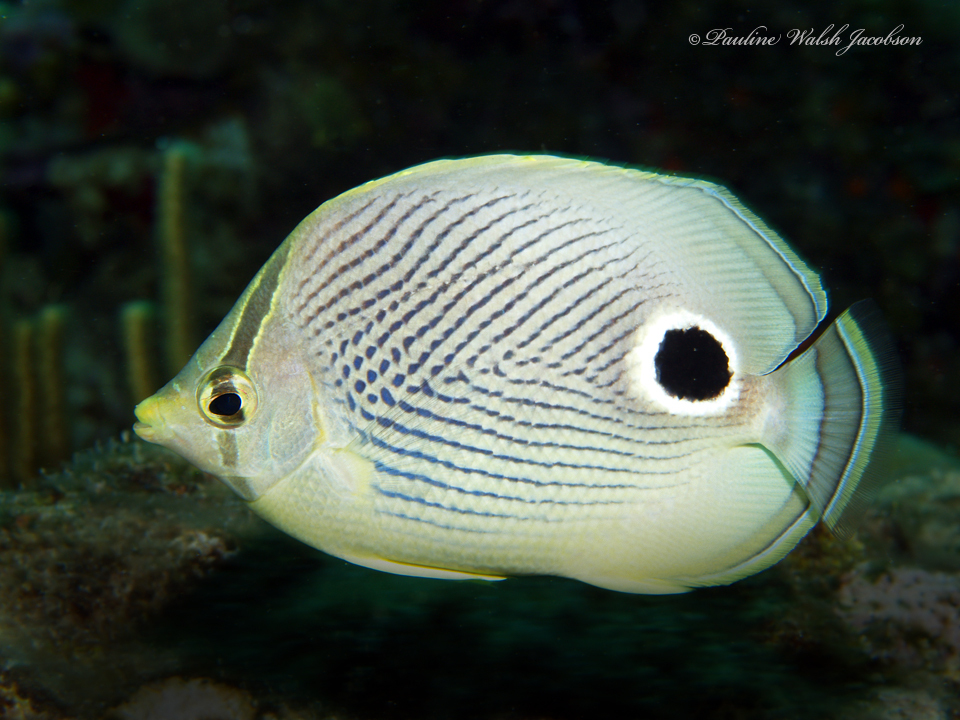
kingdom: Animalia
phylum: Chordata
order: Perciformes
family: Chaetodontidae
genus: Chaetodon
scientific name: Chaetodon capistratus
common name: Kete
